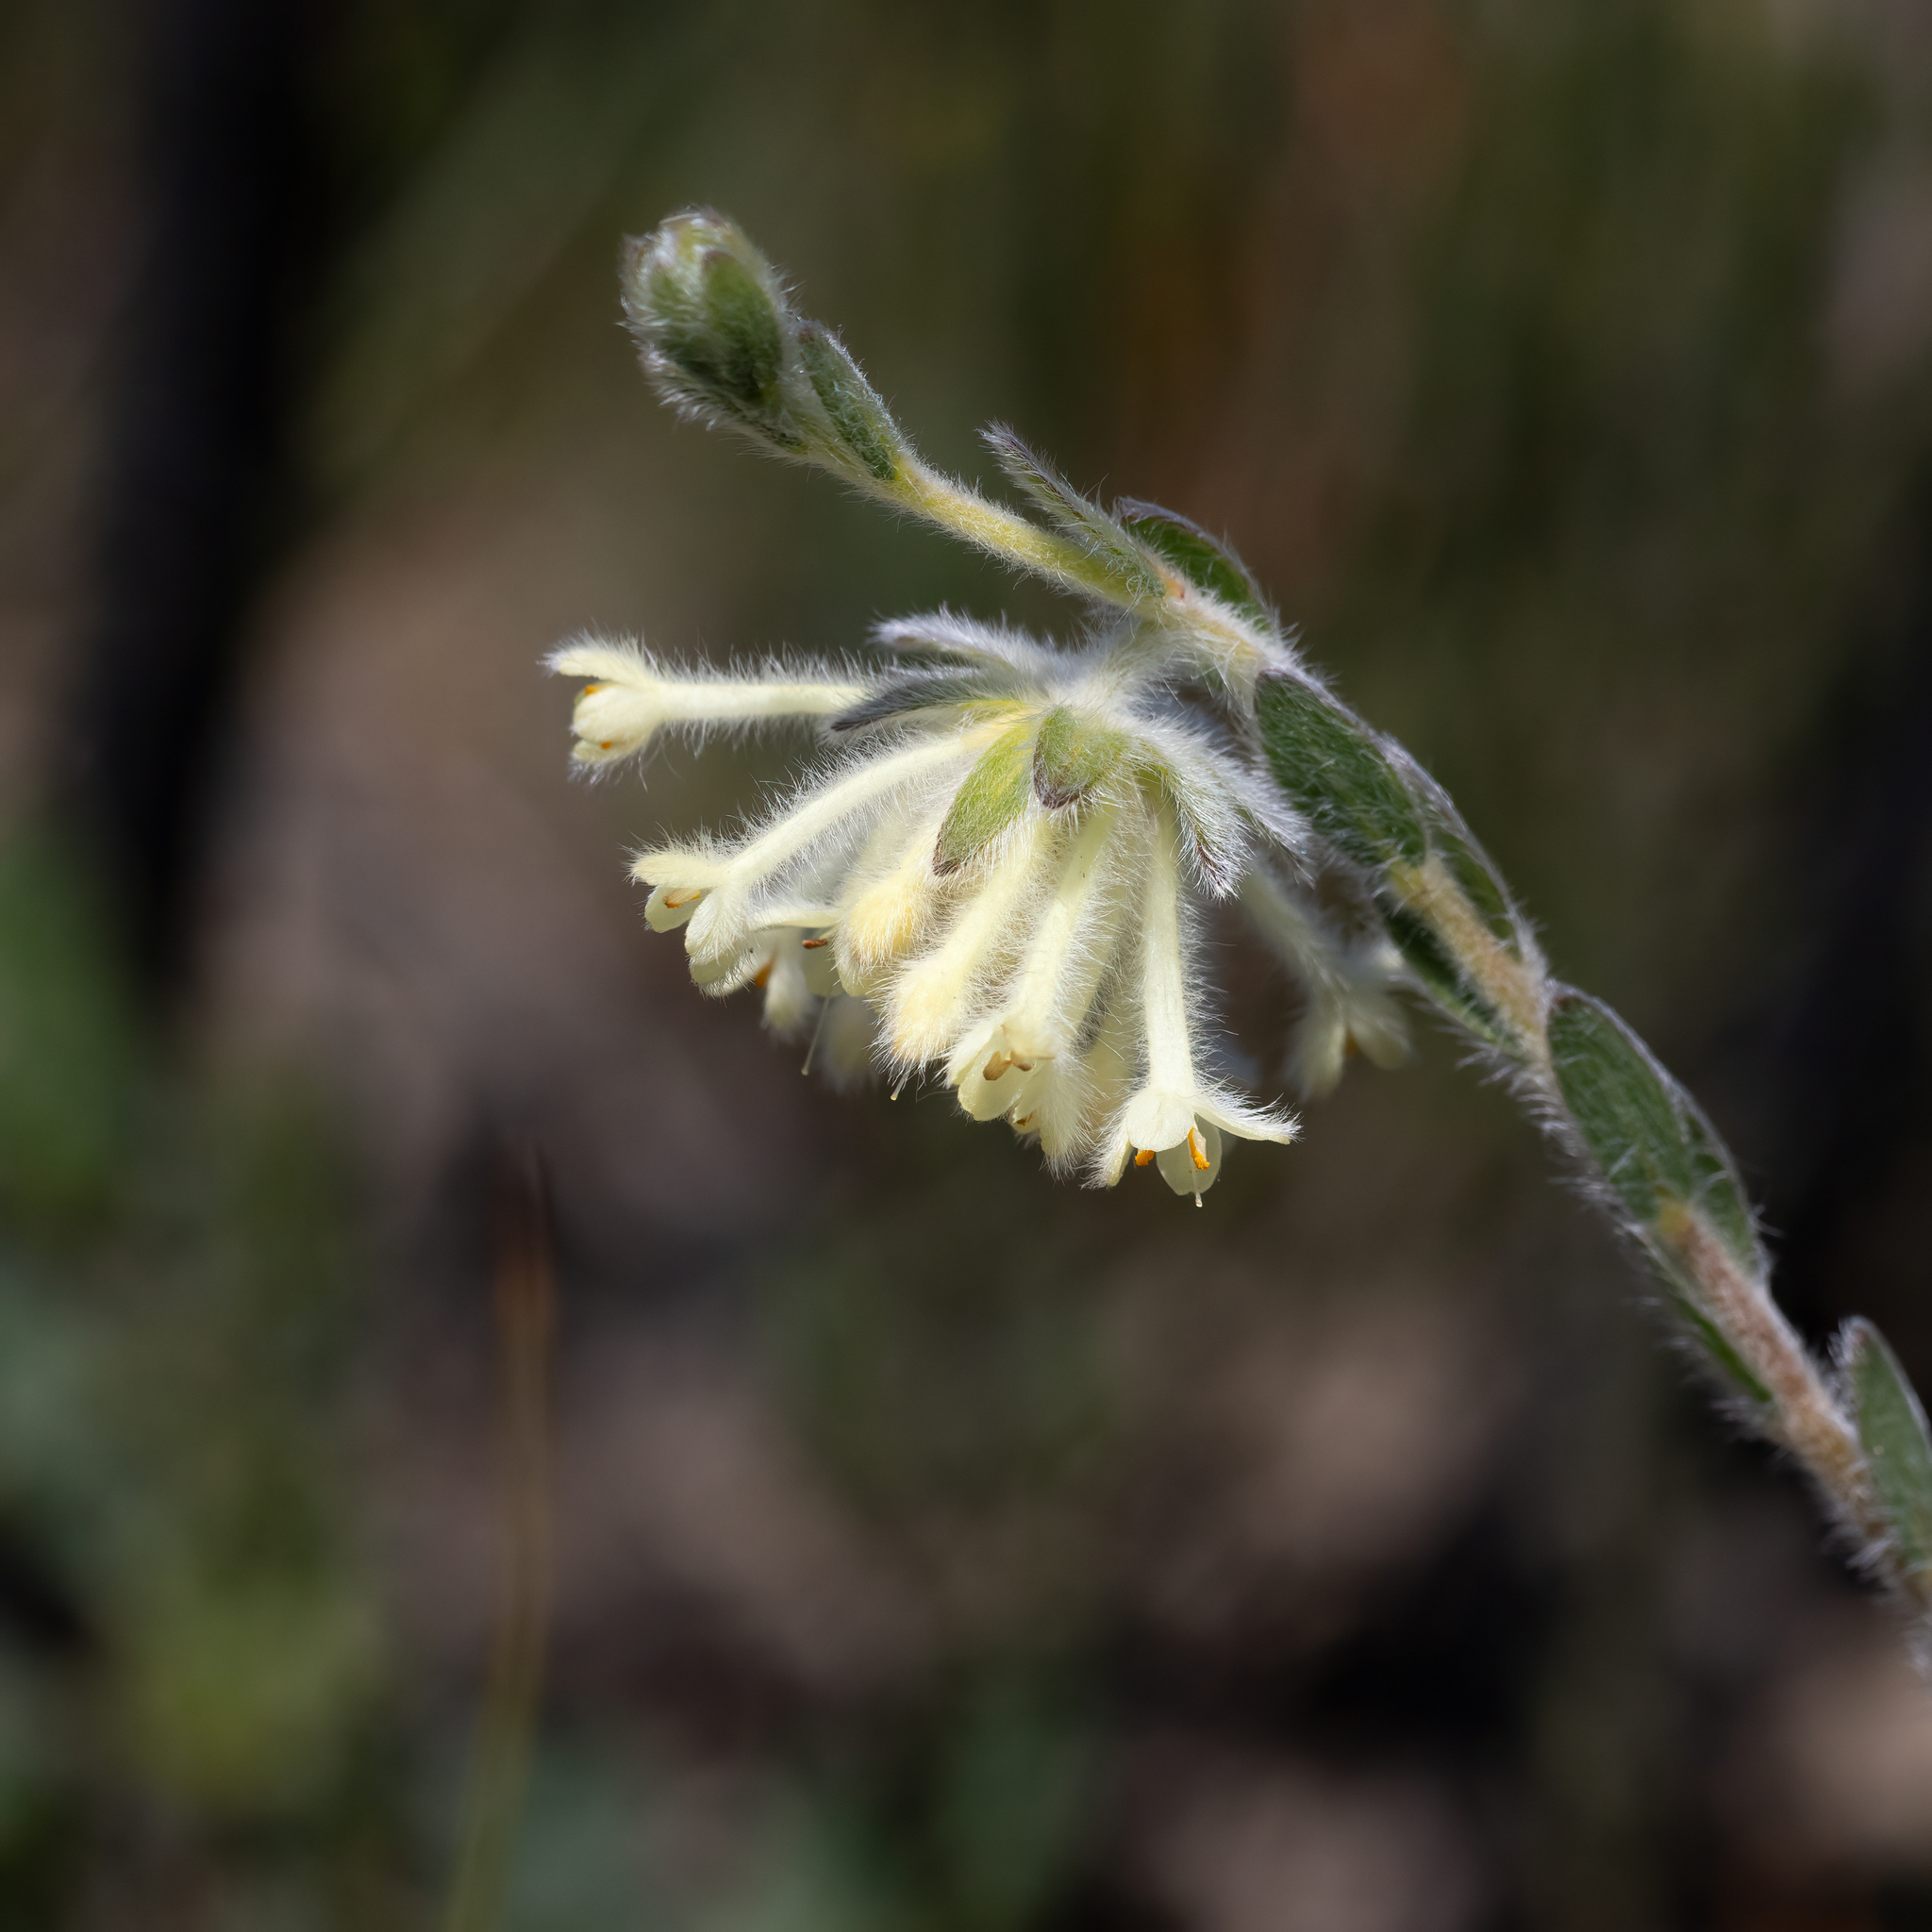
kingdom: Plantae
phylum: Tracheophyta
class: Magnoliopsida
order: Malvales
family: Thymelaeaceae
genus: Pimelea
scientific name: Pimelea octophylla
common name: Woolly riceflower
